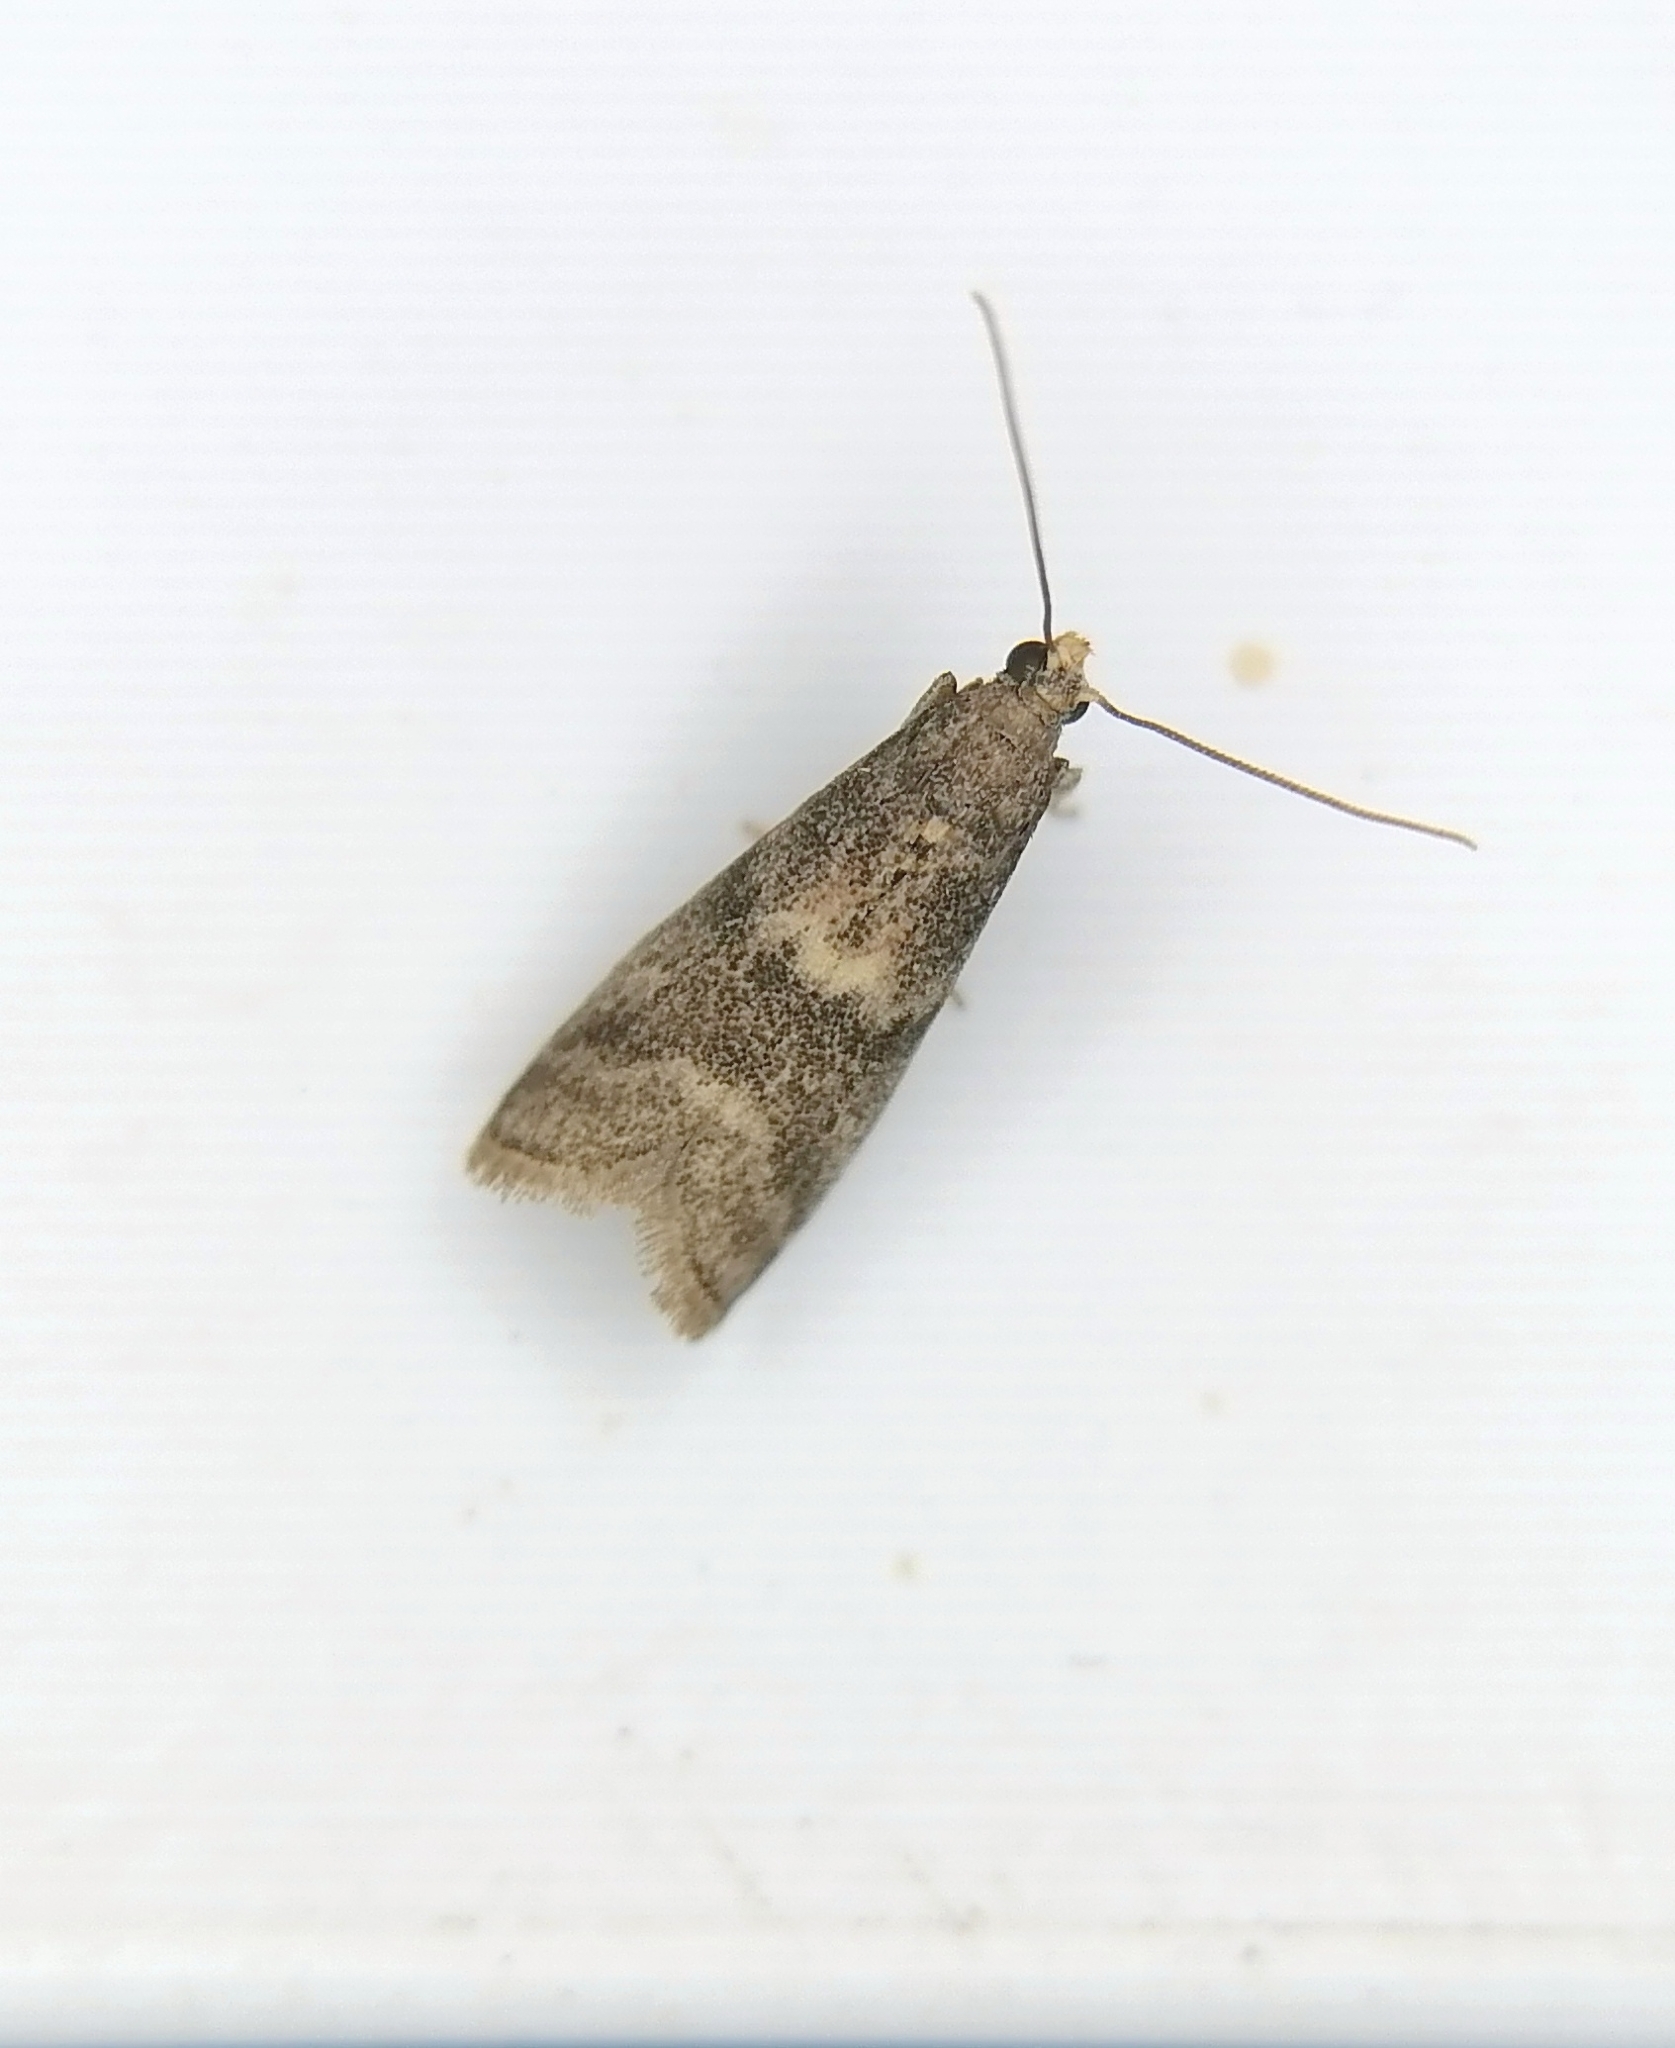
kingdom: Animalia
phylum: Arthropoda
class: Insecta
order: Lepidoptera
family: Pyralidae
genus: Glyptoteles
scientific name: Glyptoteles leucacrinella
